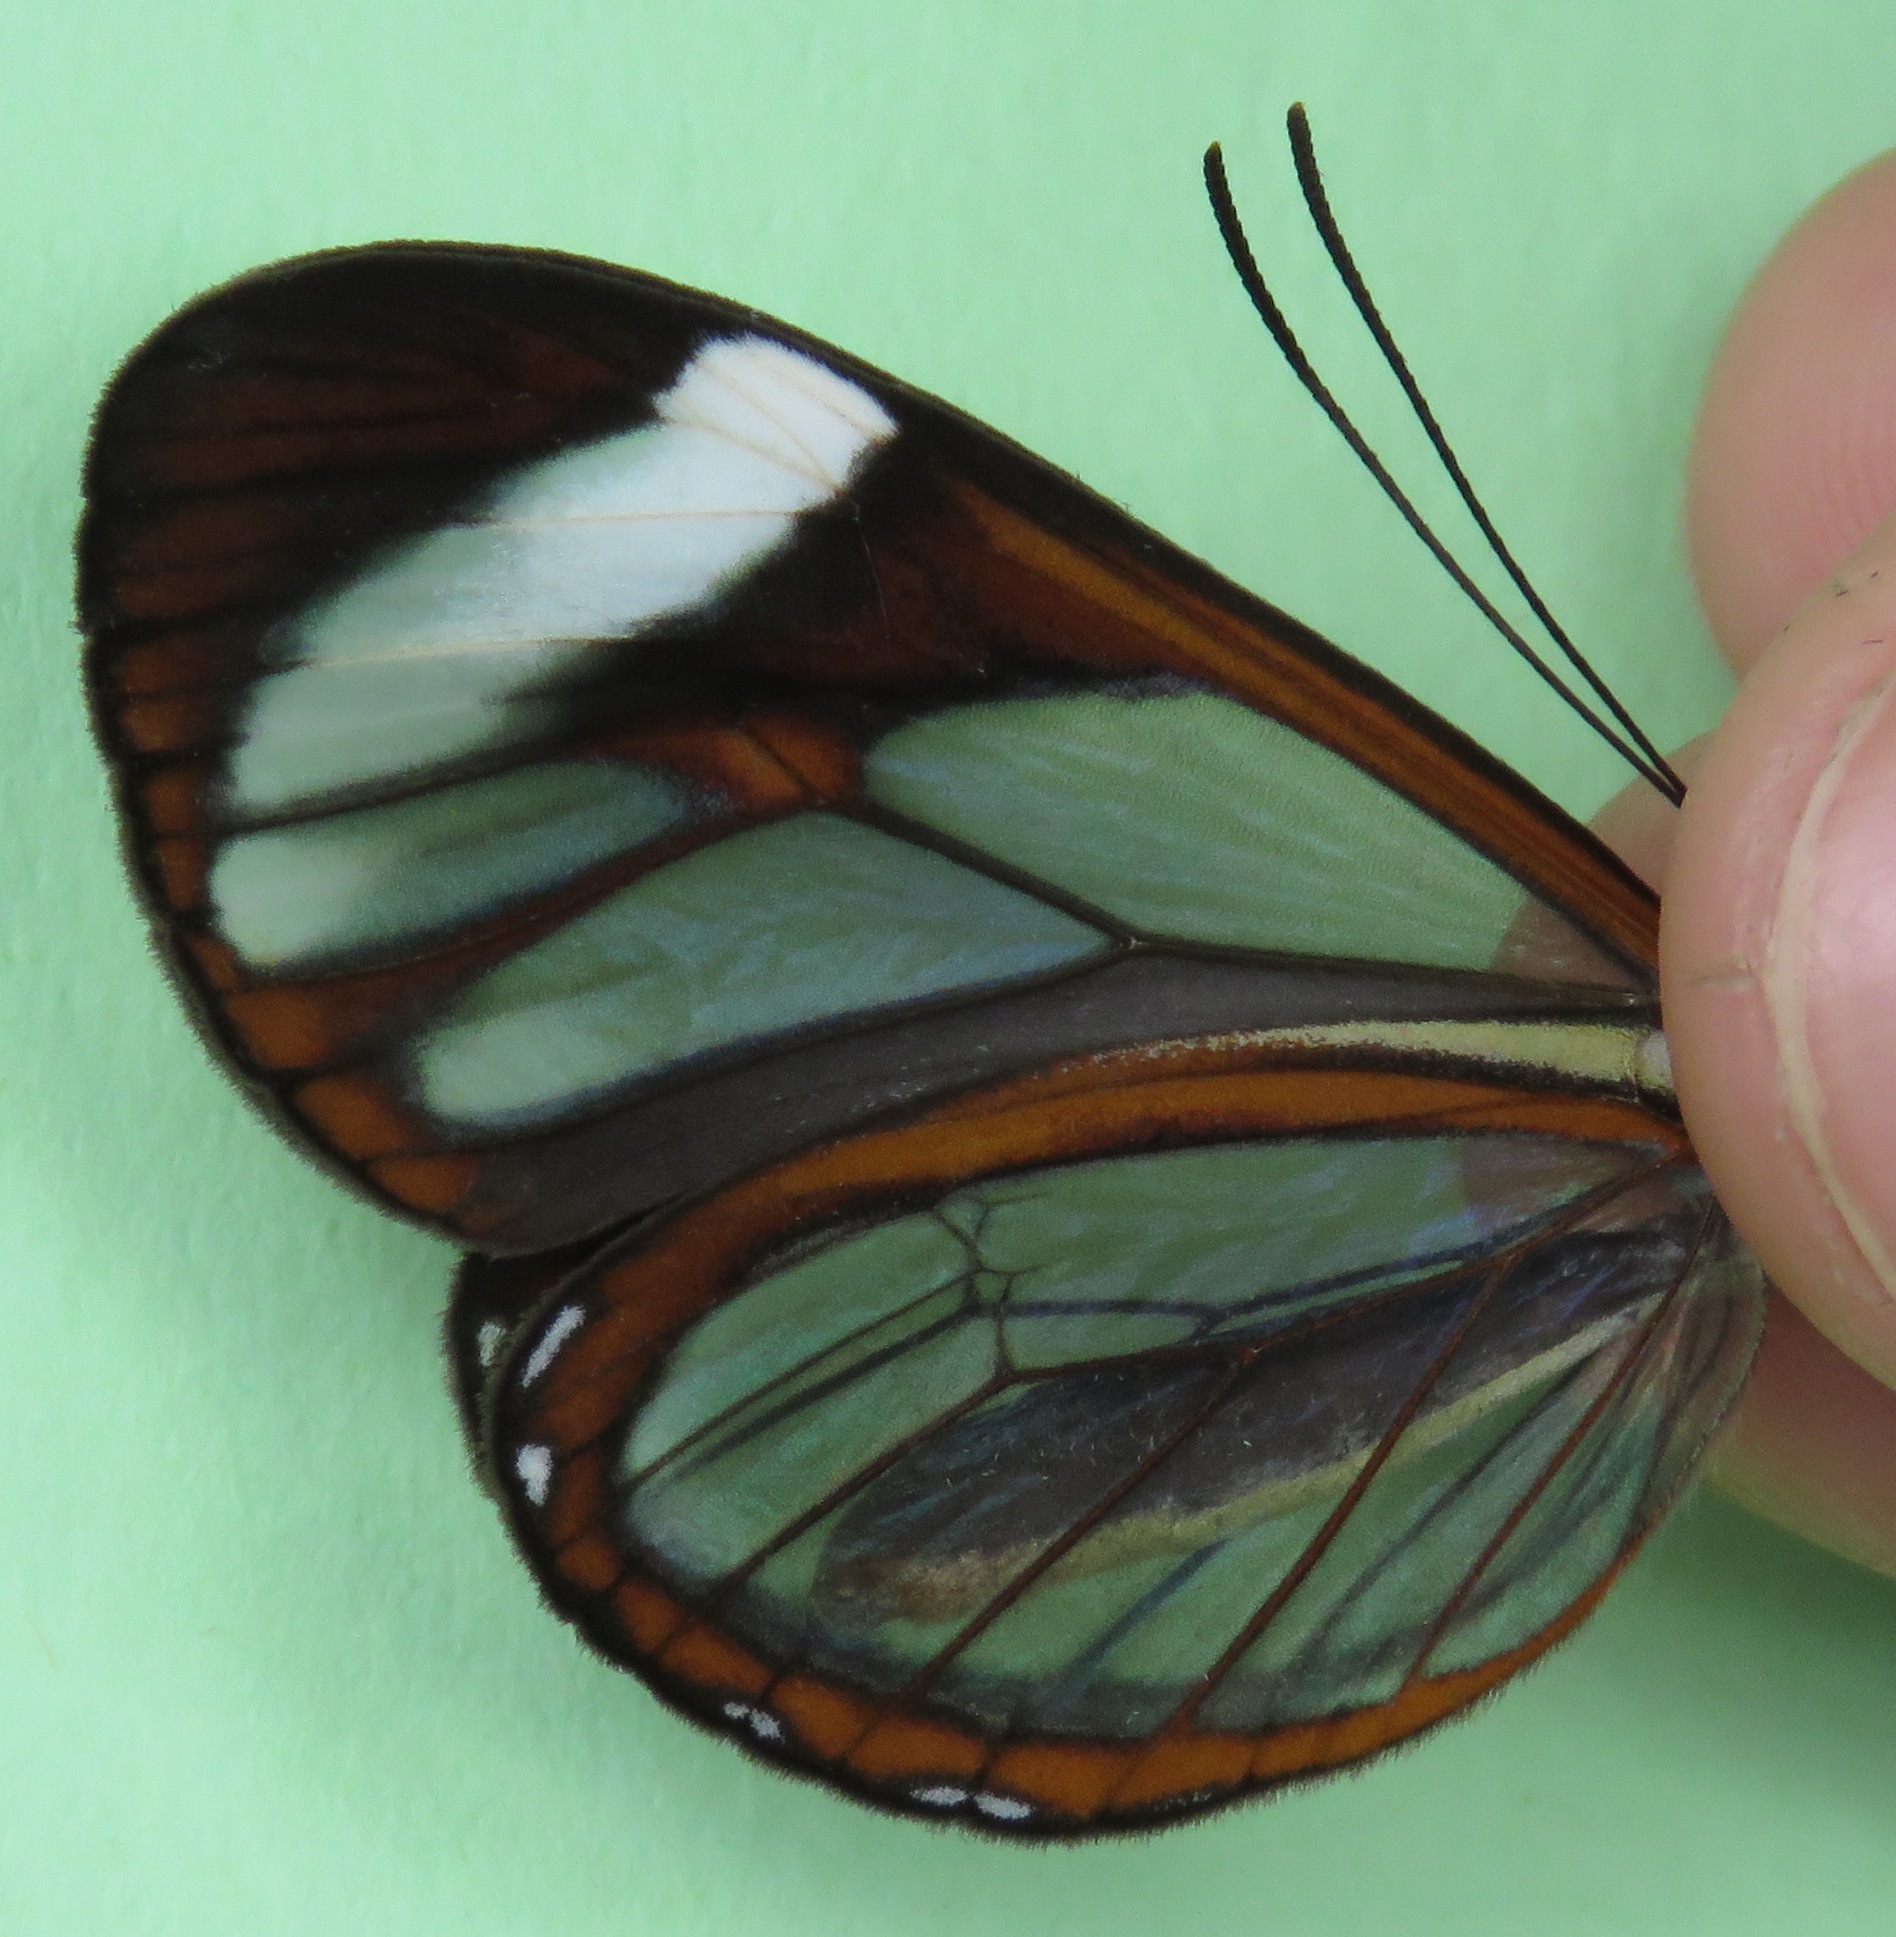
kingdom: Animalia
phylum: Arthropoda
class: Insecta
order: Lepidoptera
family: Nymphalidae
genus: Ithomia
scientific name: Ithomia patilla
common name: Patilla clearwing
